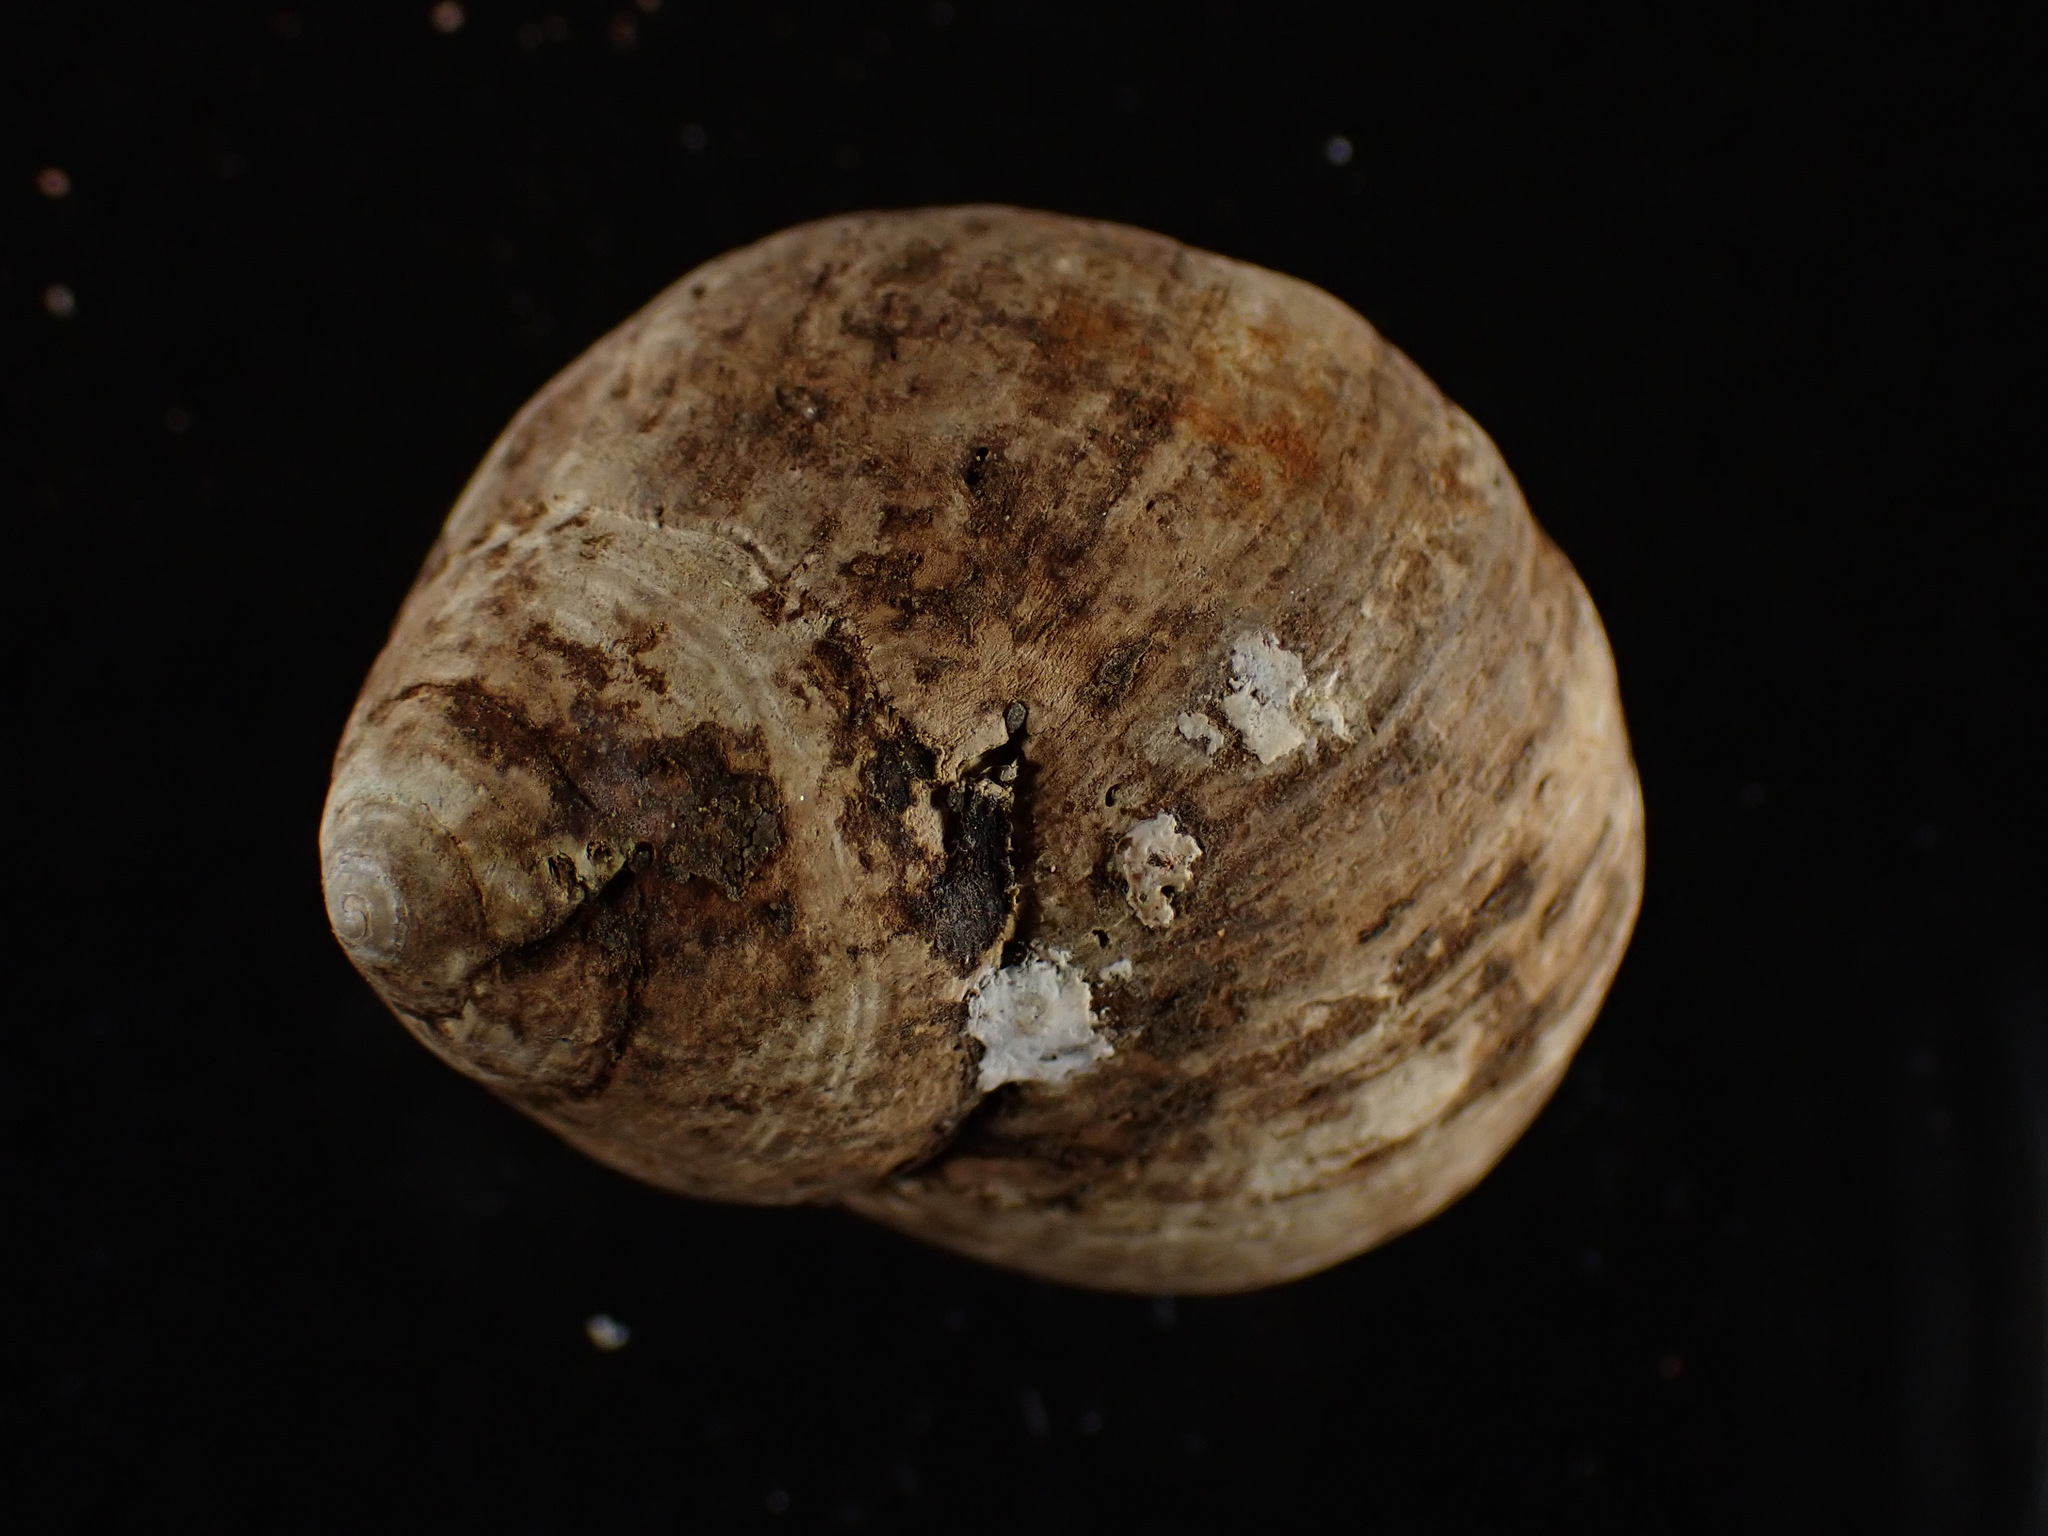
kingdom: Animalia
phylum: Mollusca
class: Gastropoda
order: Littorinimorpha
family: Littorinidae
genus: Littorina
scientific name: Littorina littorea
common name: Common periwinkle
